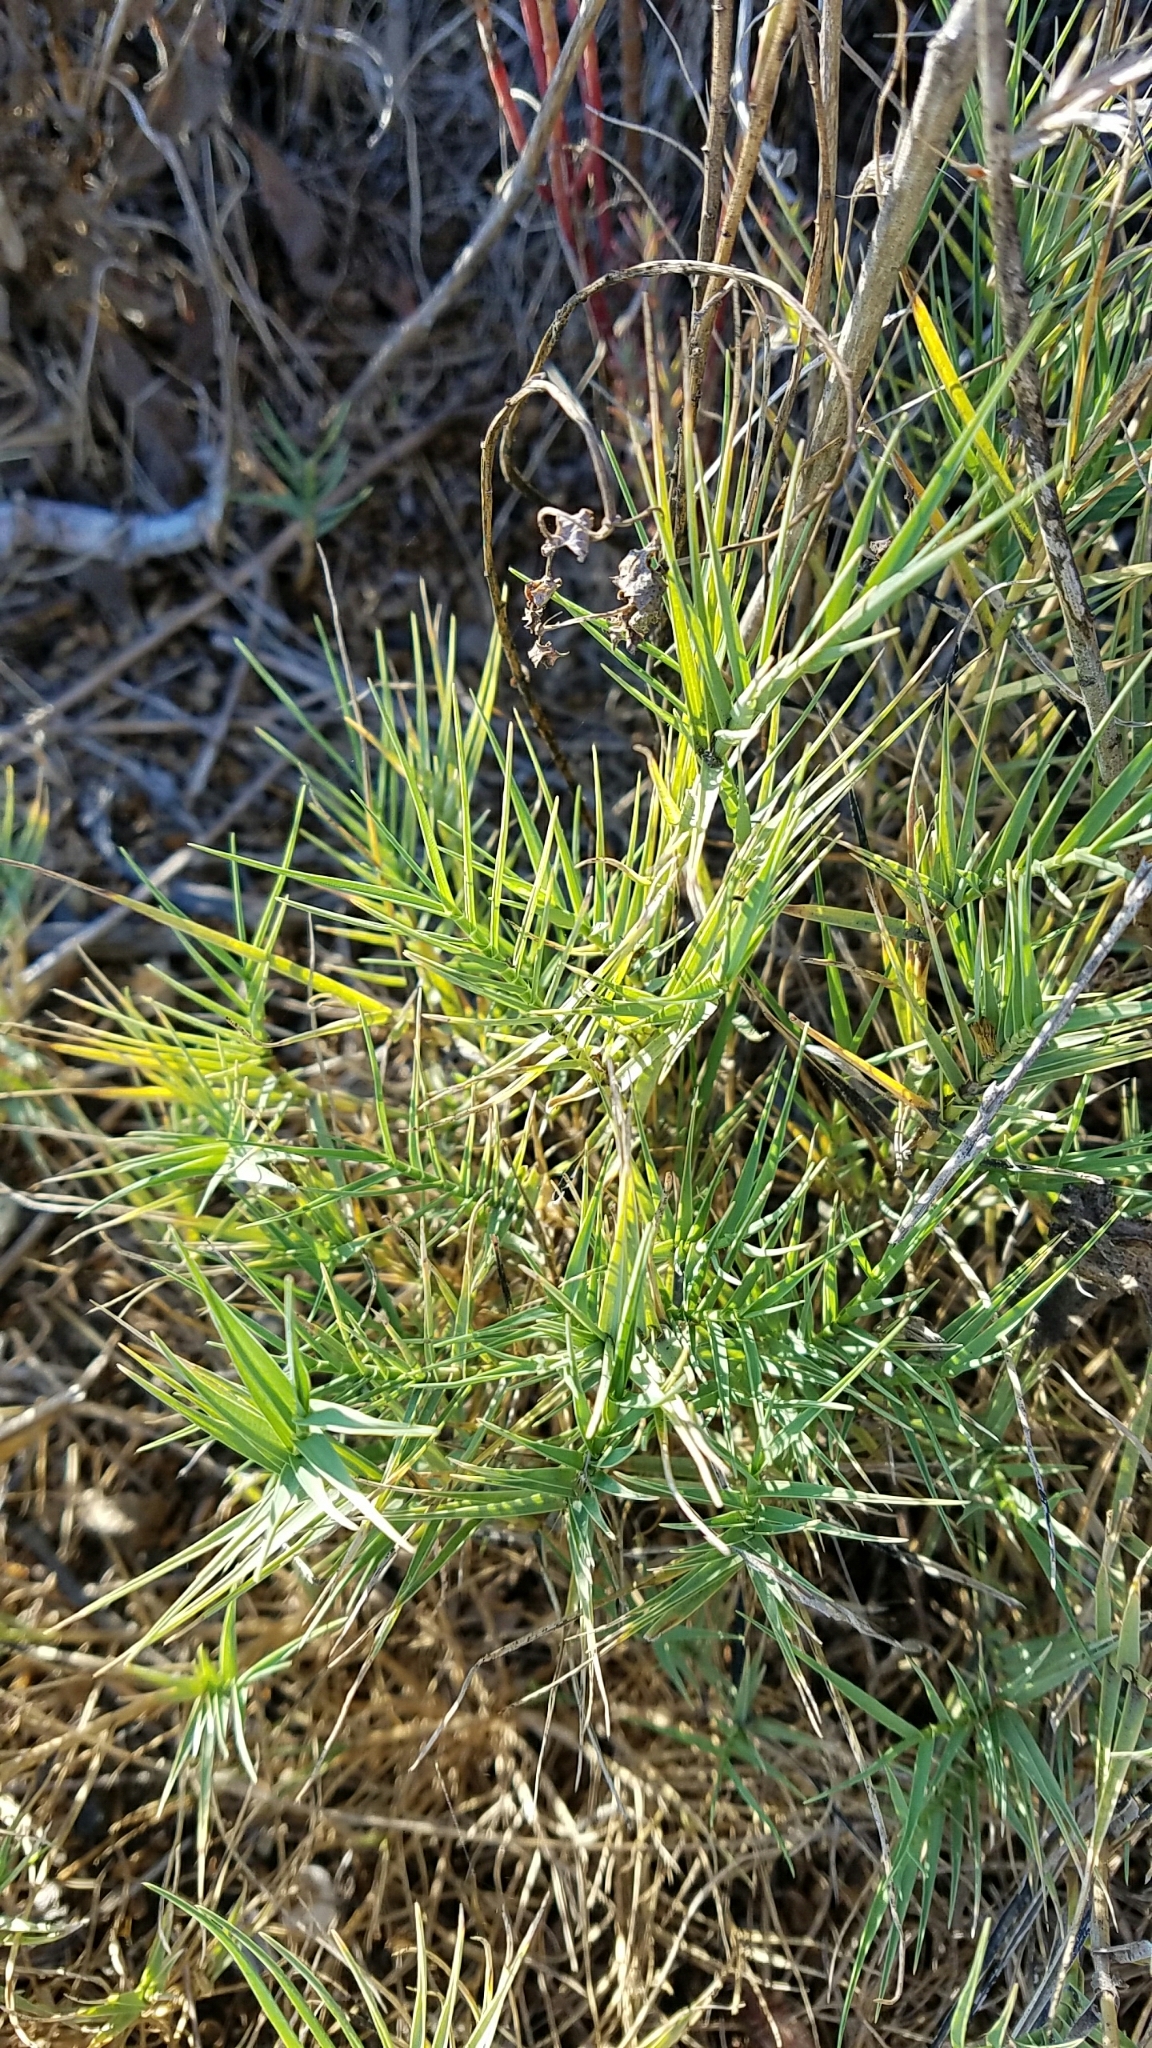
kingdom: Plantae
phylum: Tracheophyta
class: Liliopsida
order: Poales
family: Poaceae
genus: Distichlis
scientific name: Distichlis spicata
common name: Saltgrass
